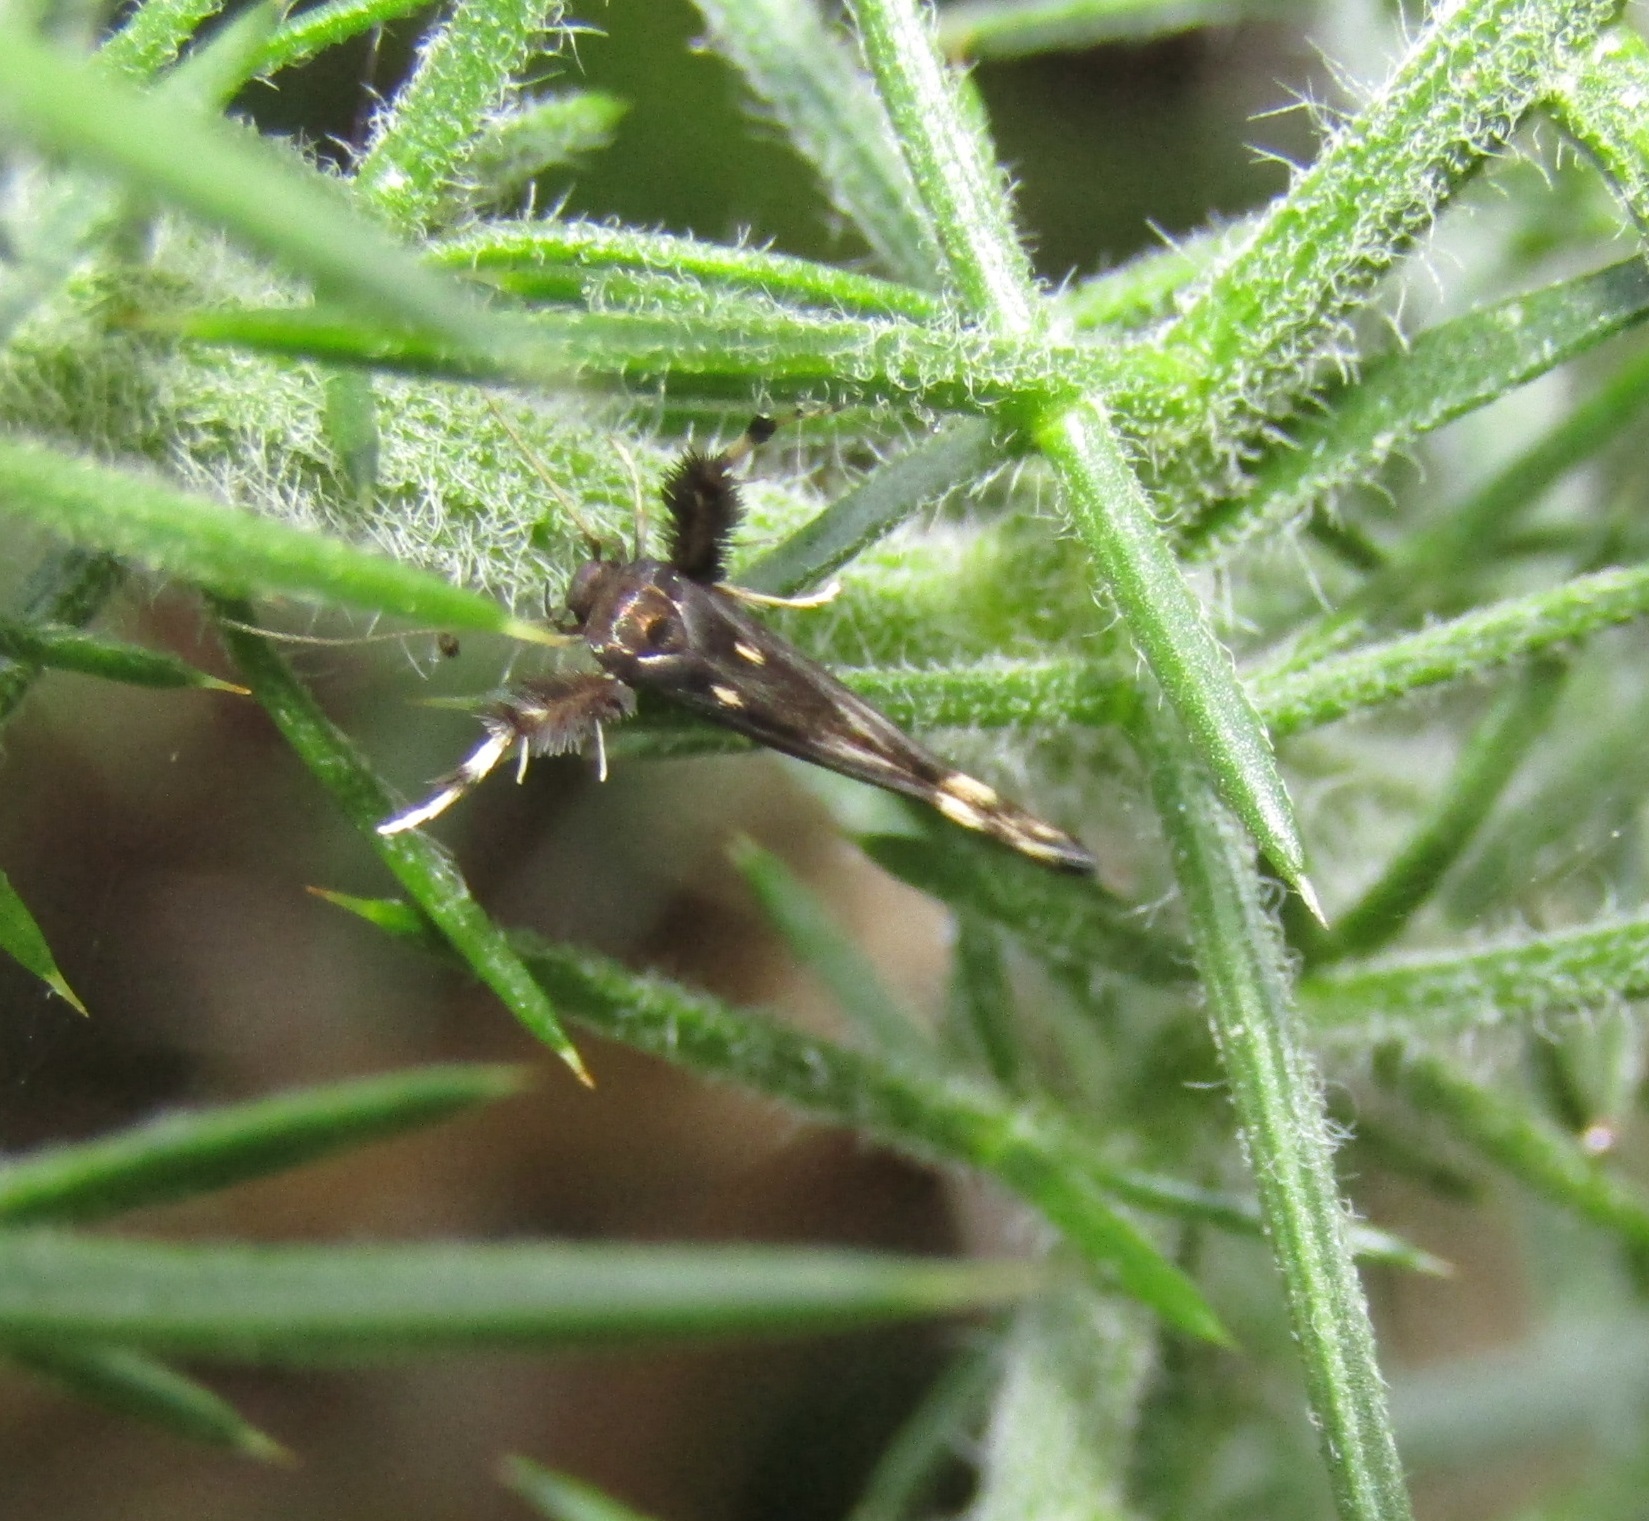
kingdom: Animalia
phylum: Arthropoda
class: Insecta
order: Lepidoptera
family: Stathmopodidae
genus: Stathmopoda
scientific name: Stathmopoda coracodes
